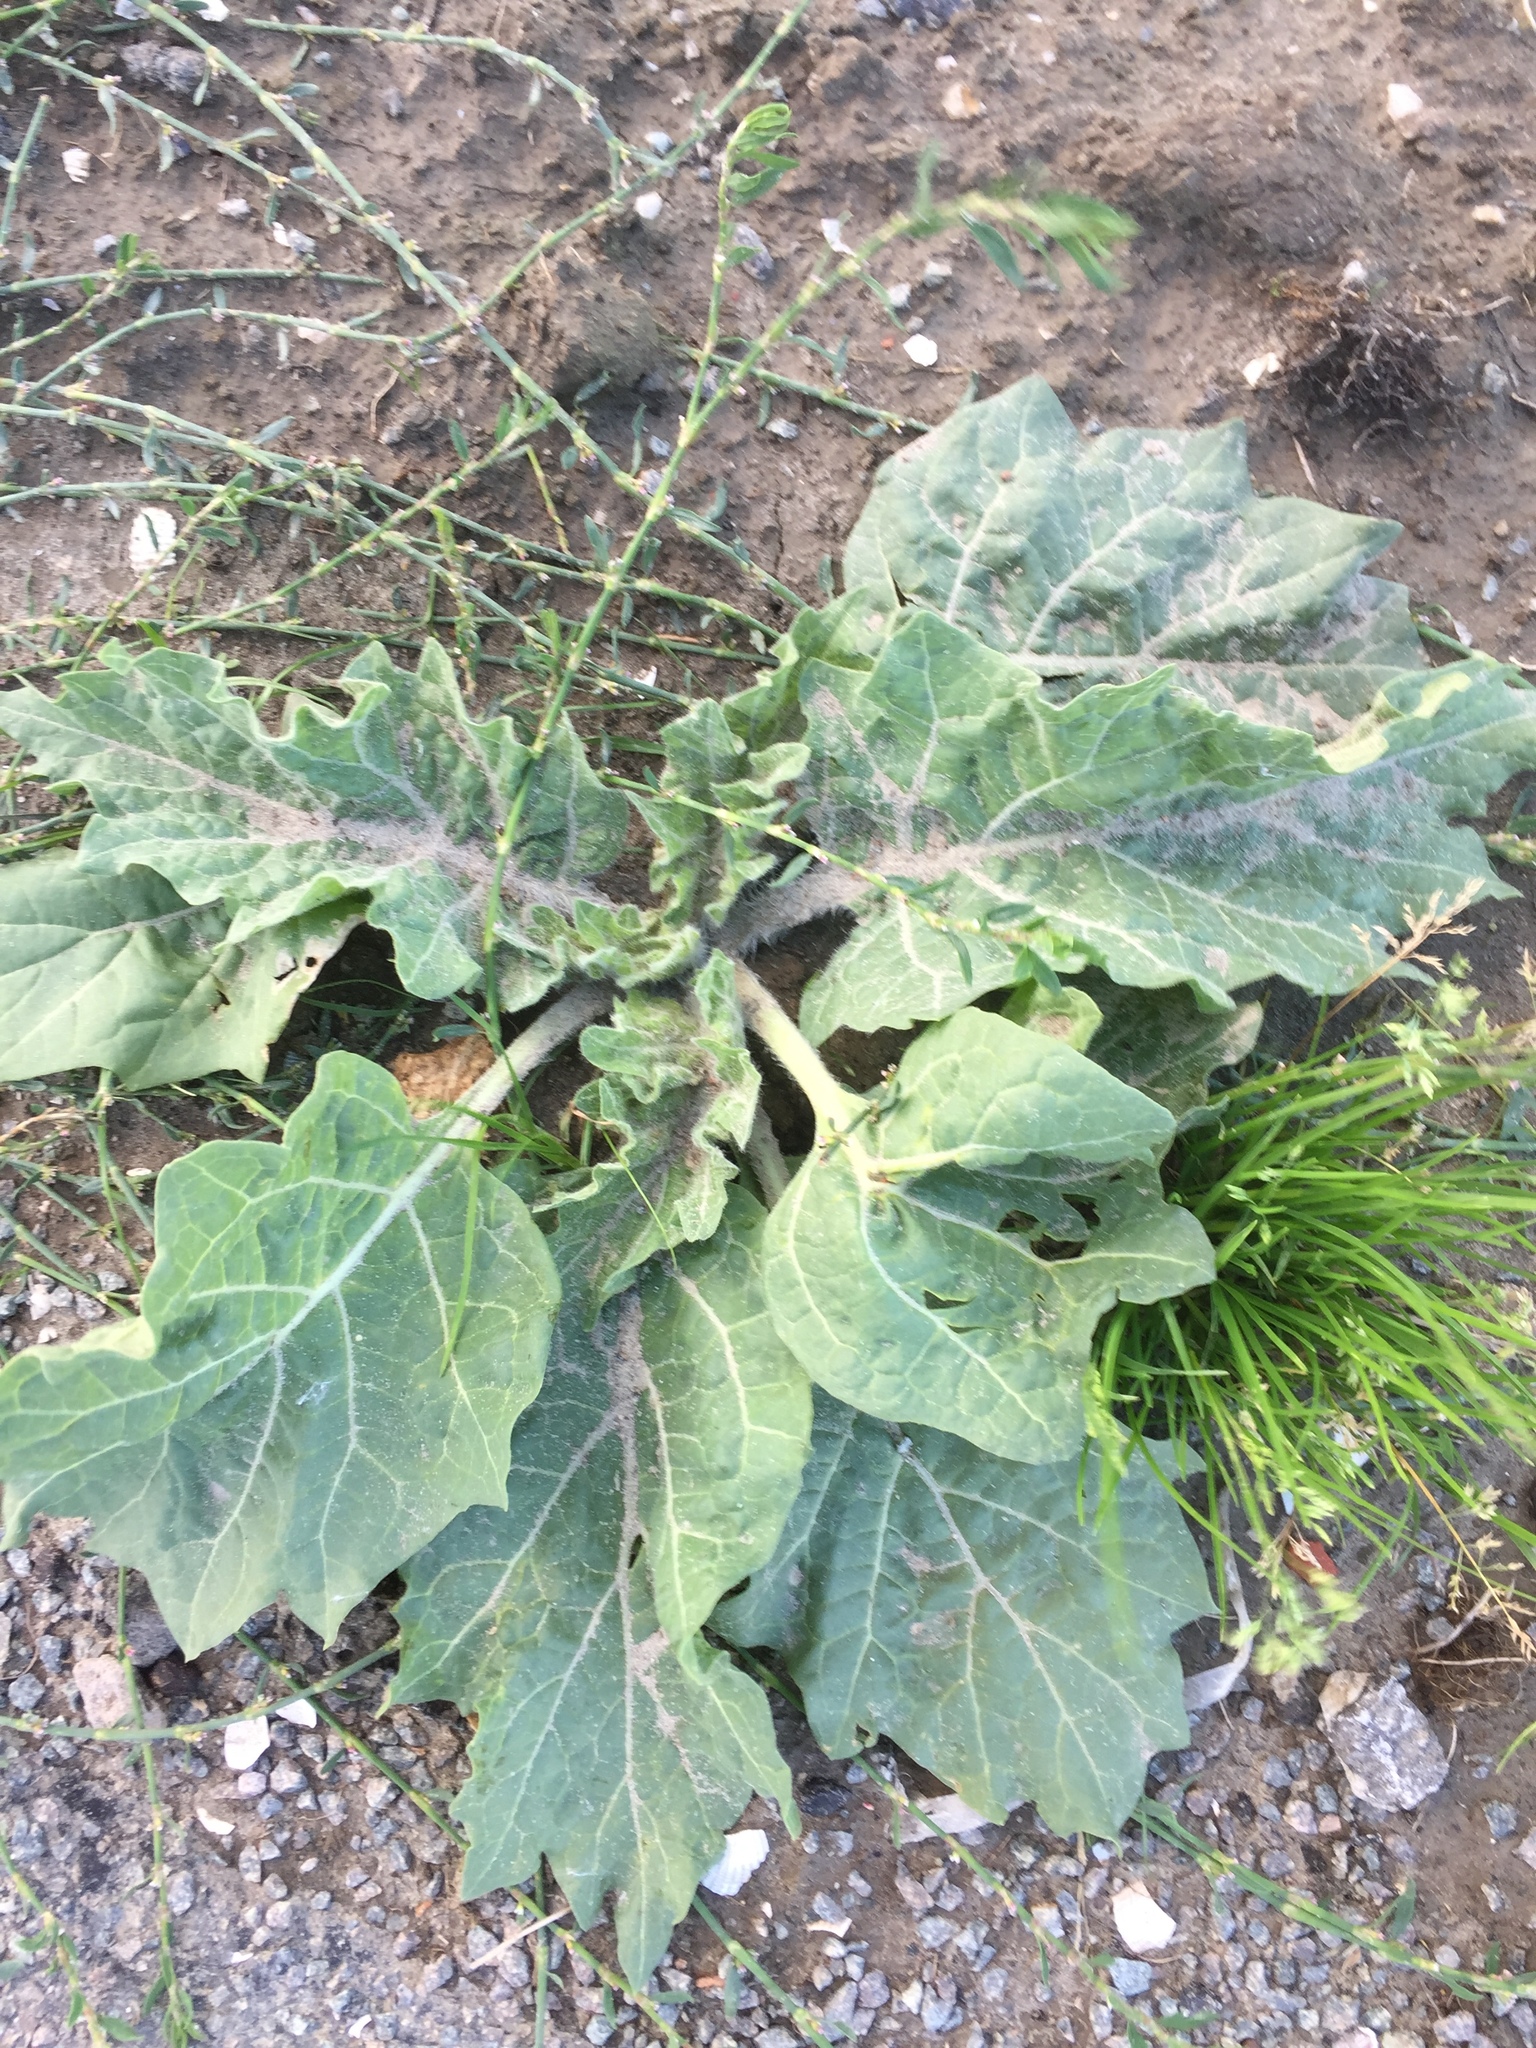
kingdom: Plantae
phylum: Tracheophyta
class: Magnoliopsida
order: Solanales
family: Solanaceae
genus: Hyoscyamus
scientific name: Hyoscyamus niger
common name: Henbane
